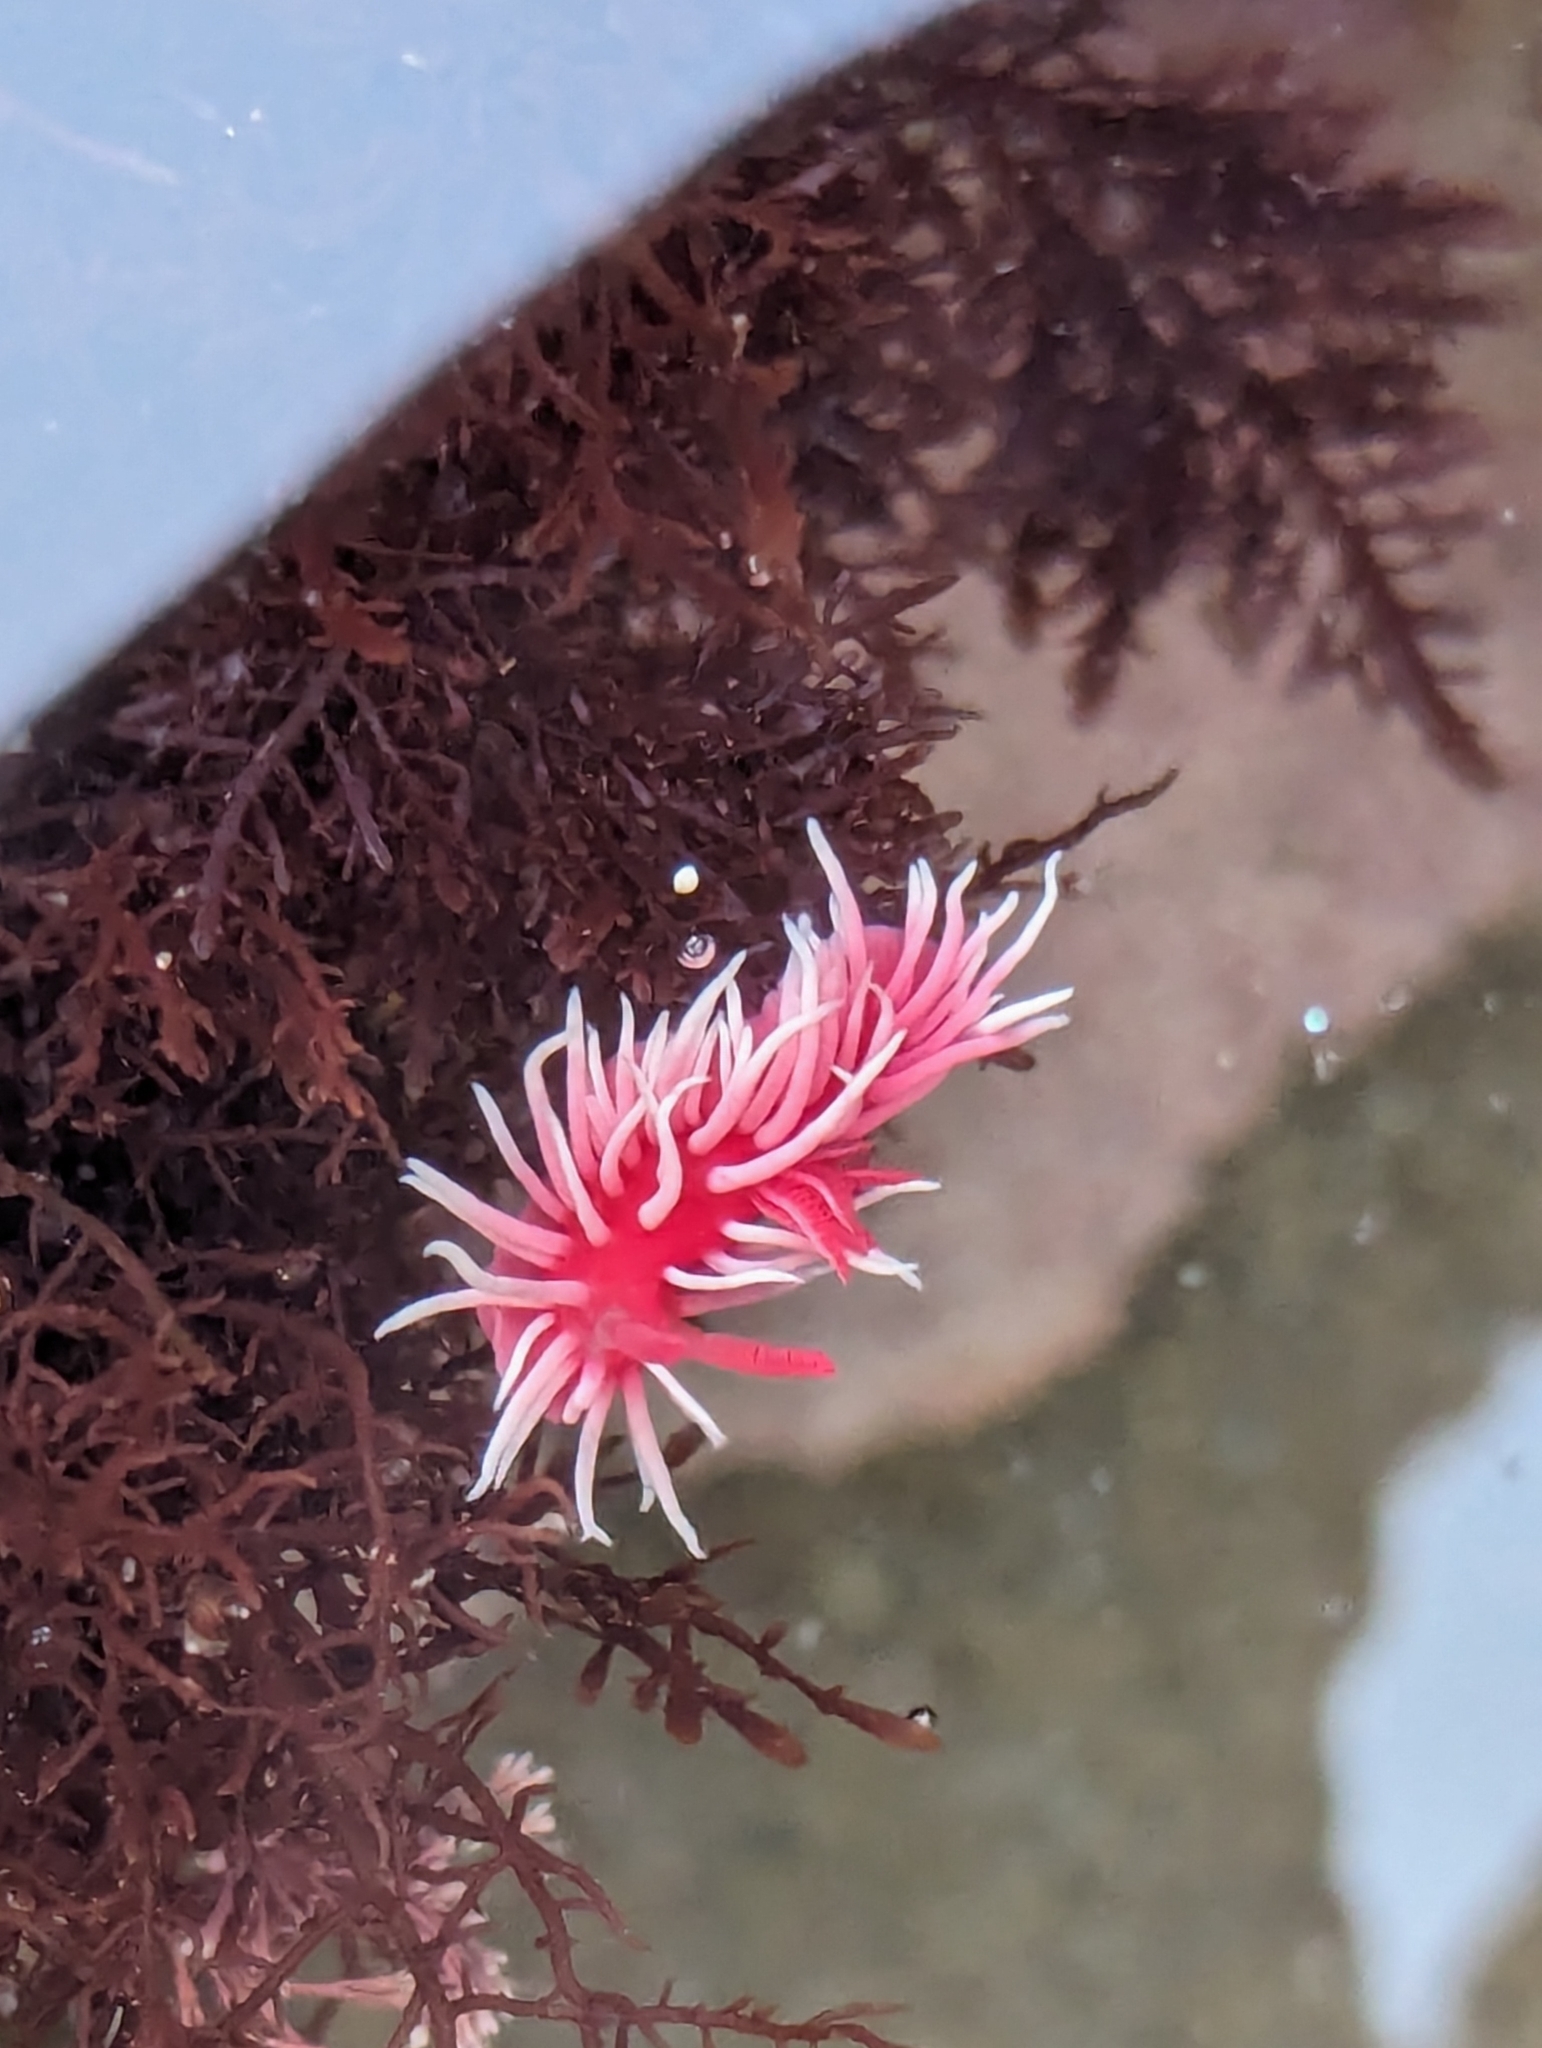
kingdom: Animalia
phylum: Mollusca
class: Gastropoda
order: Nudibranchia
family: Goniodorididae
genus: Okenia
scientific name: Okenia
